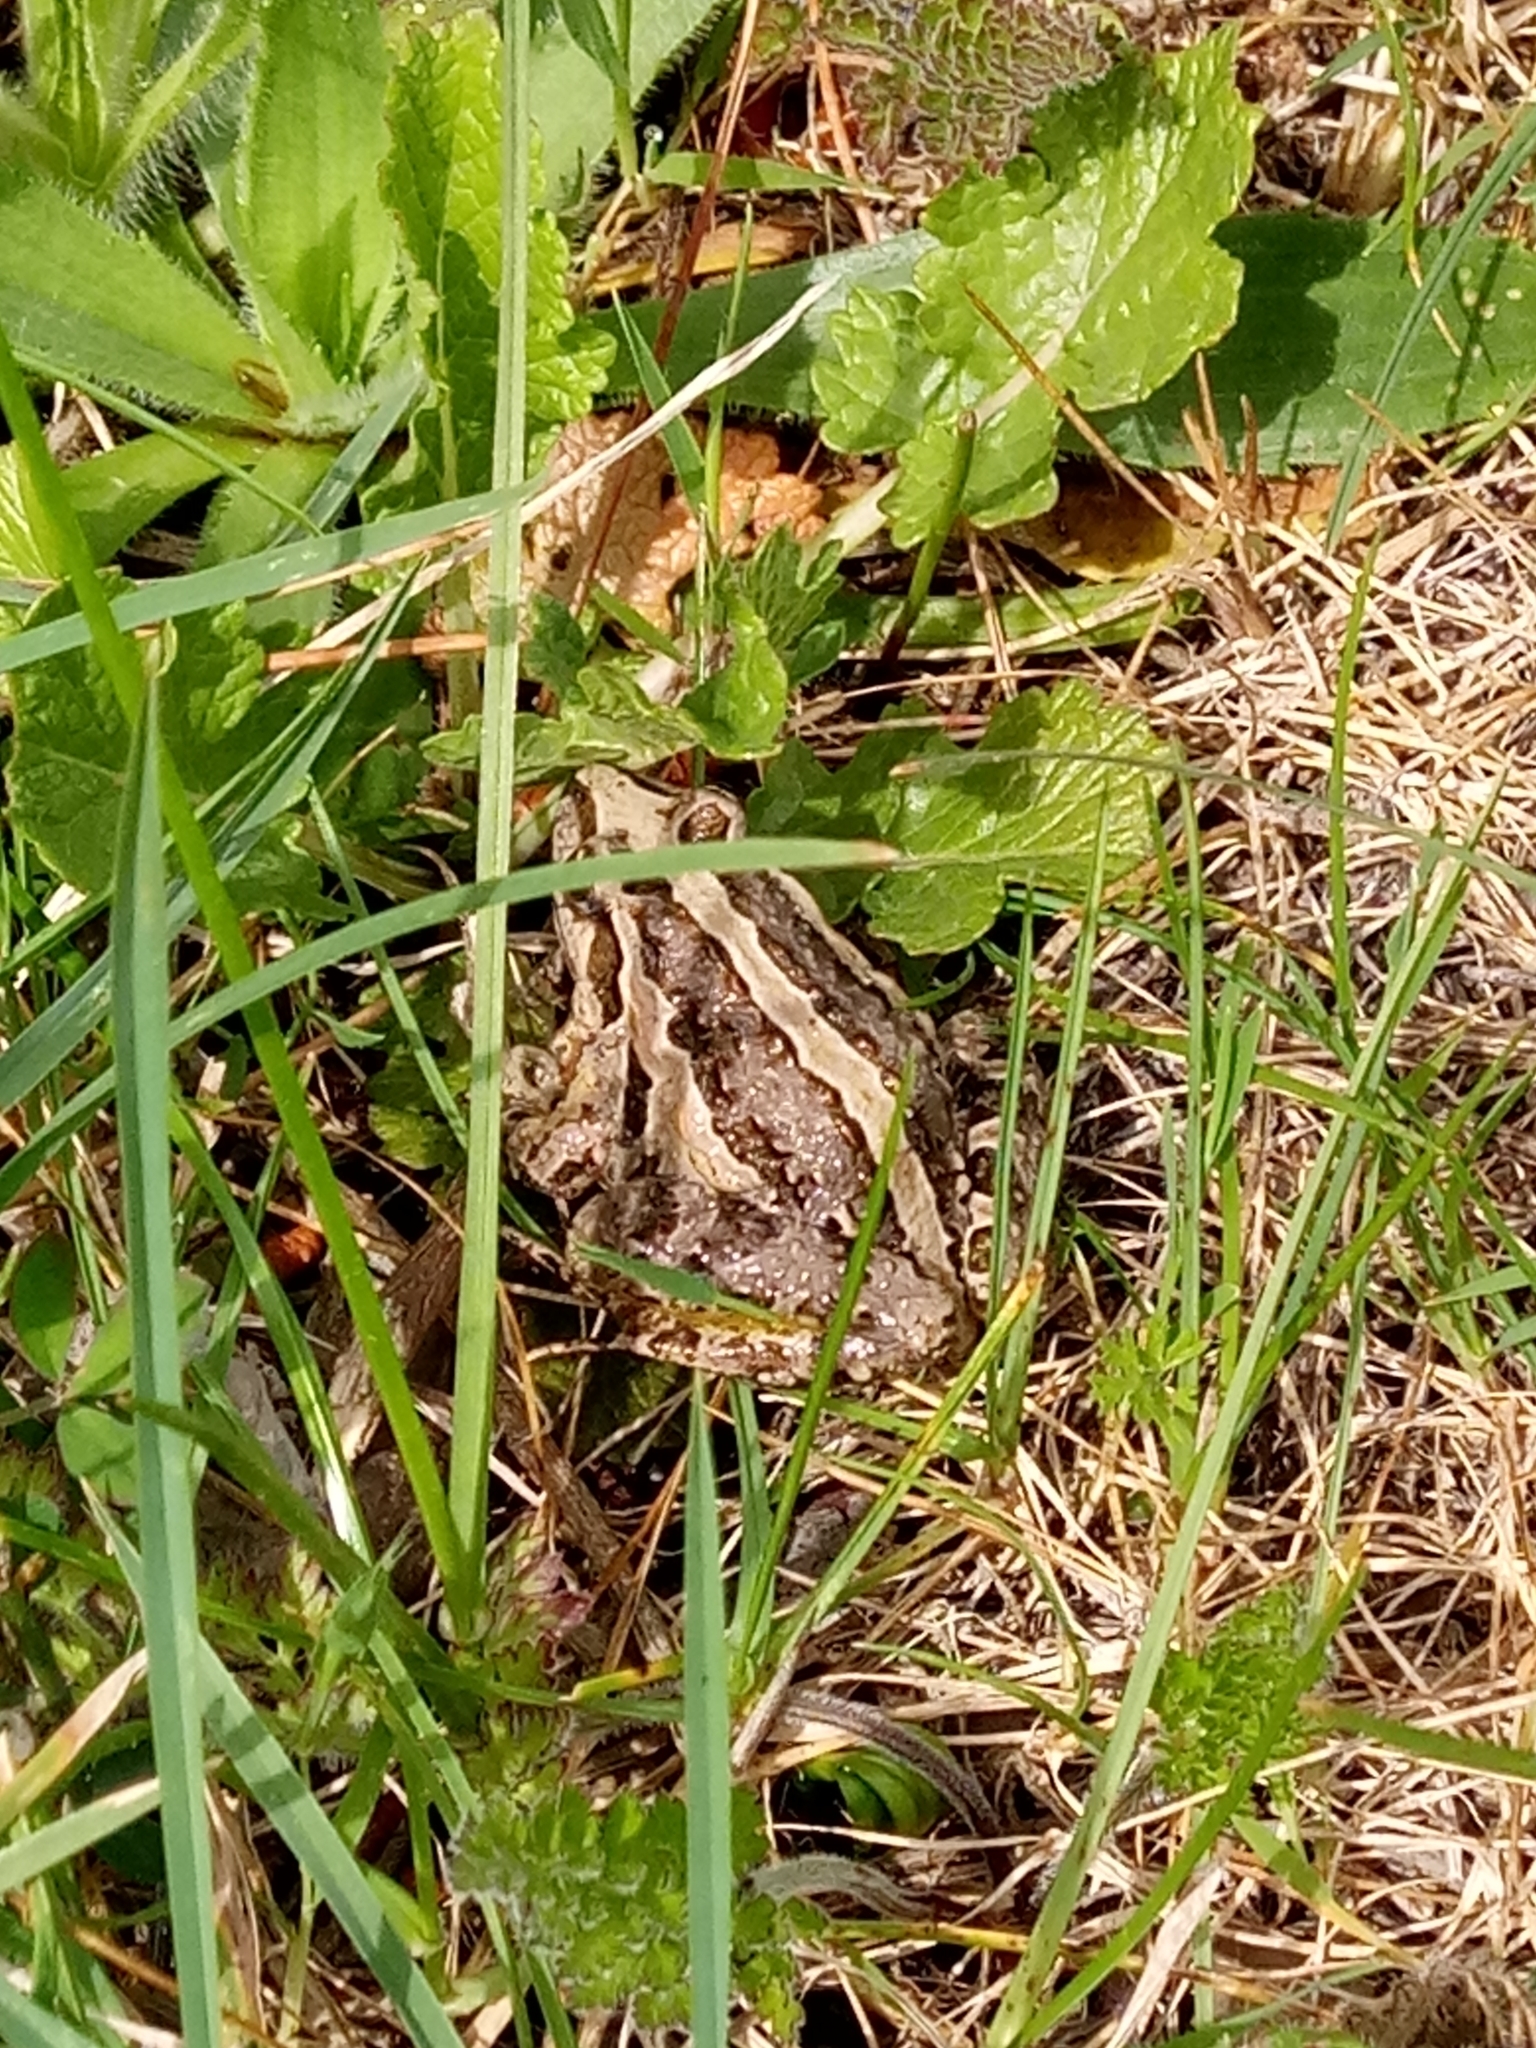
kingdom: Animalia
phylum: Chordata
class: Amphibia
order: Anura
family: Alytidae
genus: Discoglossus
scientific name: Discoglossus pictus
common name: Painted frog
